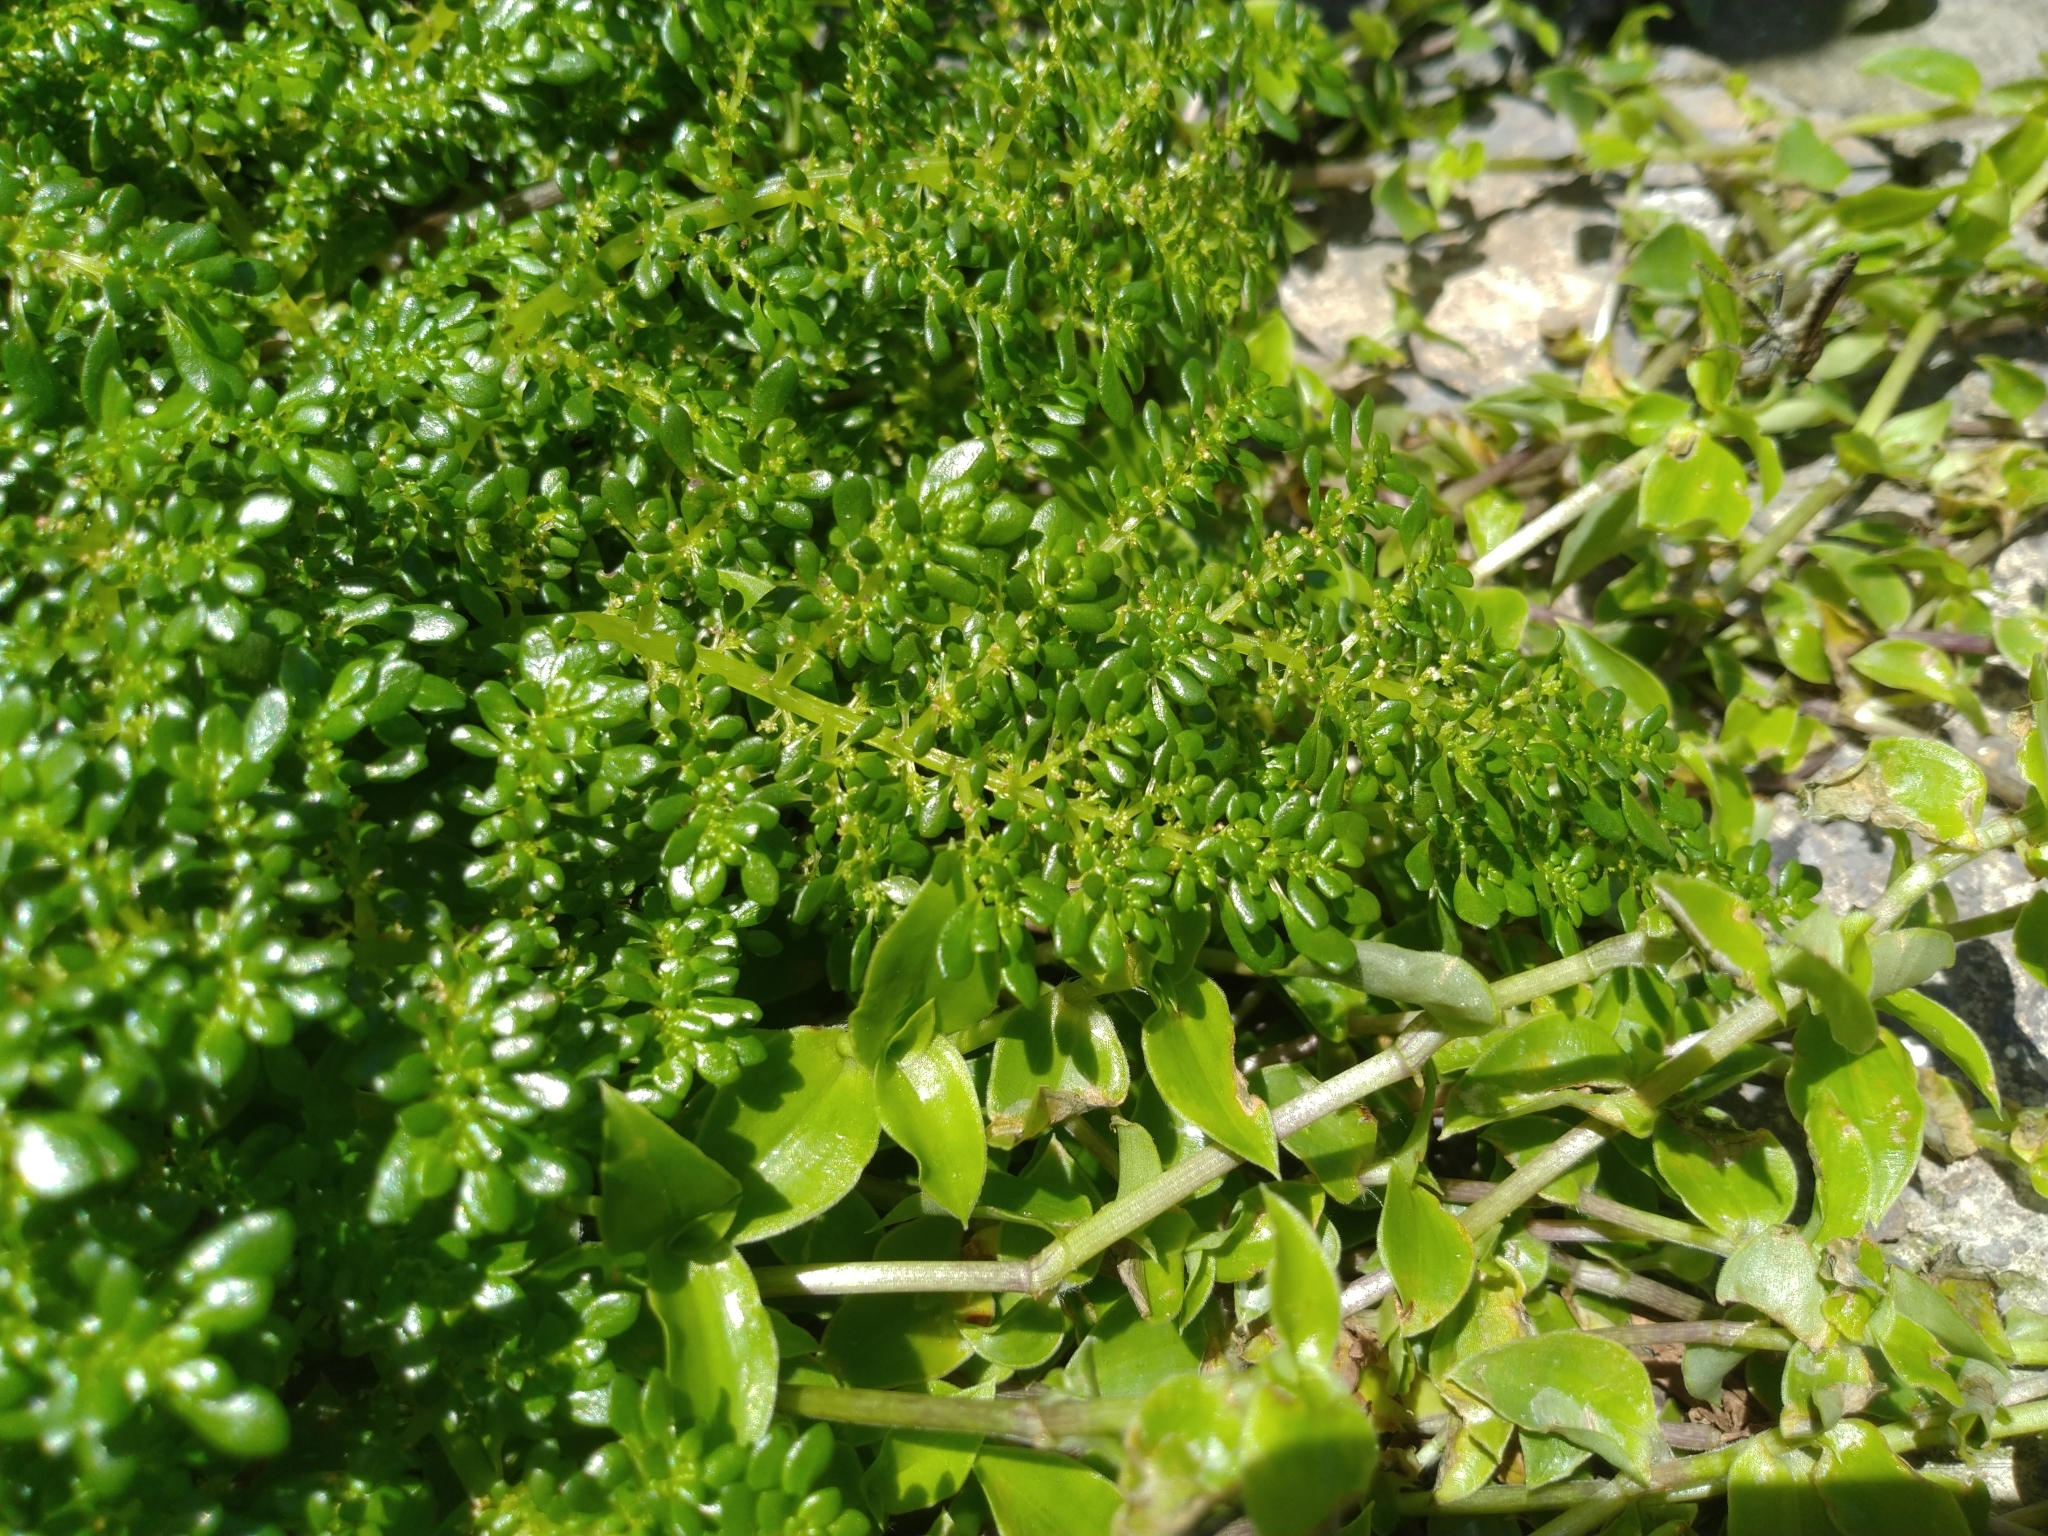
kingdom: Plantae
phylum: Tracheophyta
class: Magnoliopsida
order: Rosales
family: Urticaceae
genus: Pilea
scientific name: Pilea microphylla
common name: Artillery-plant
